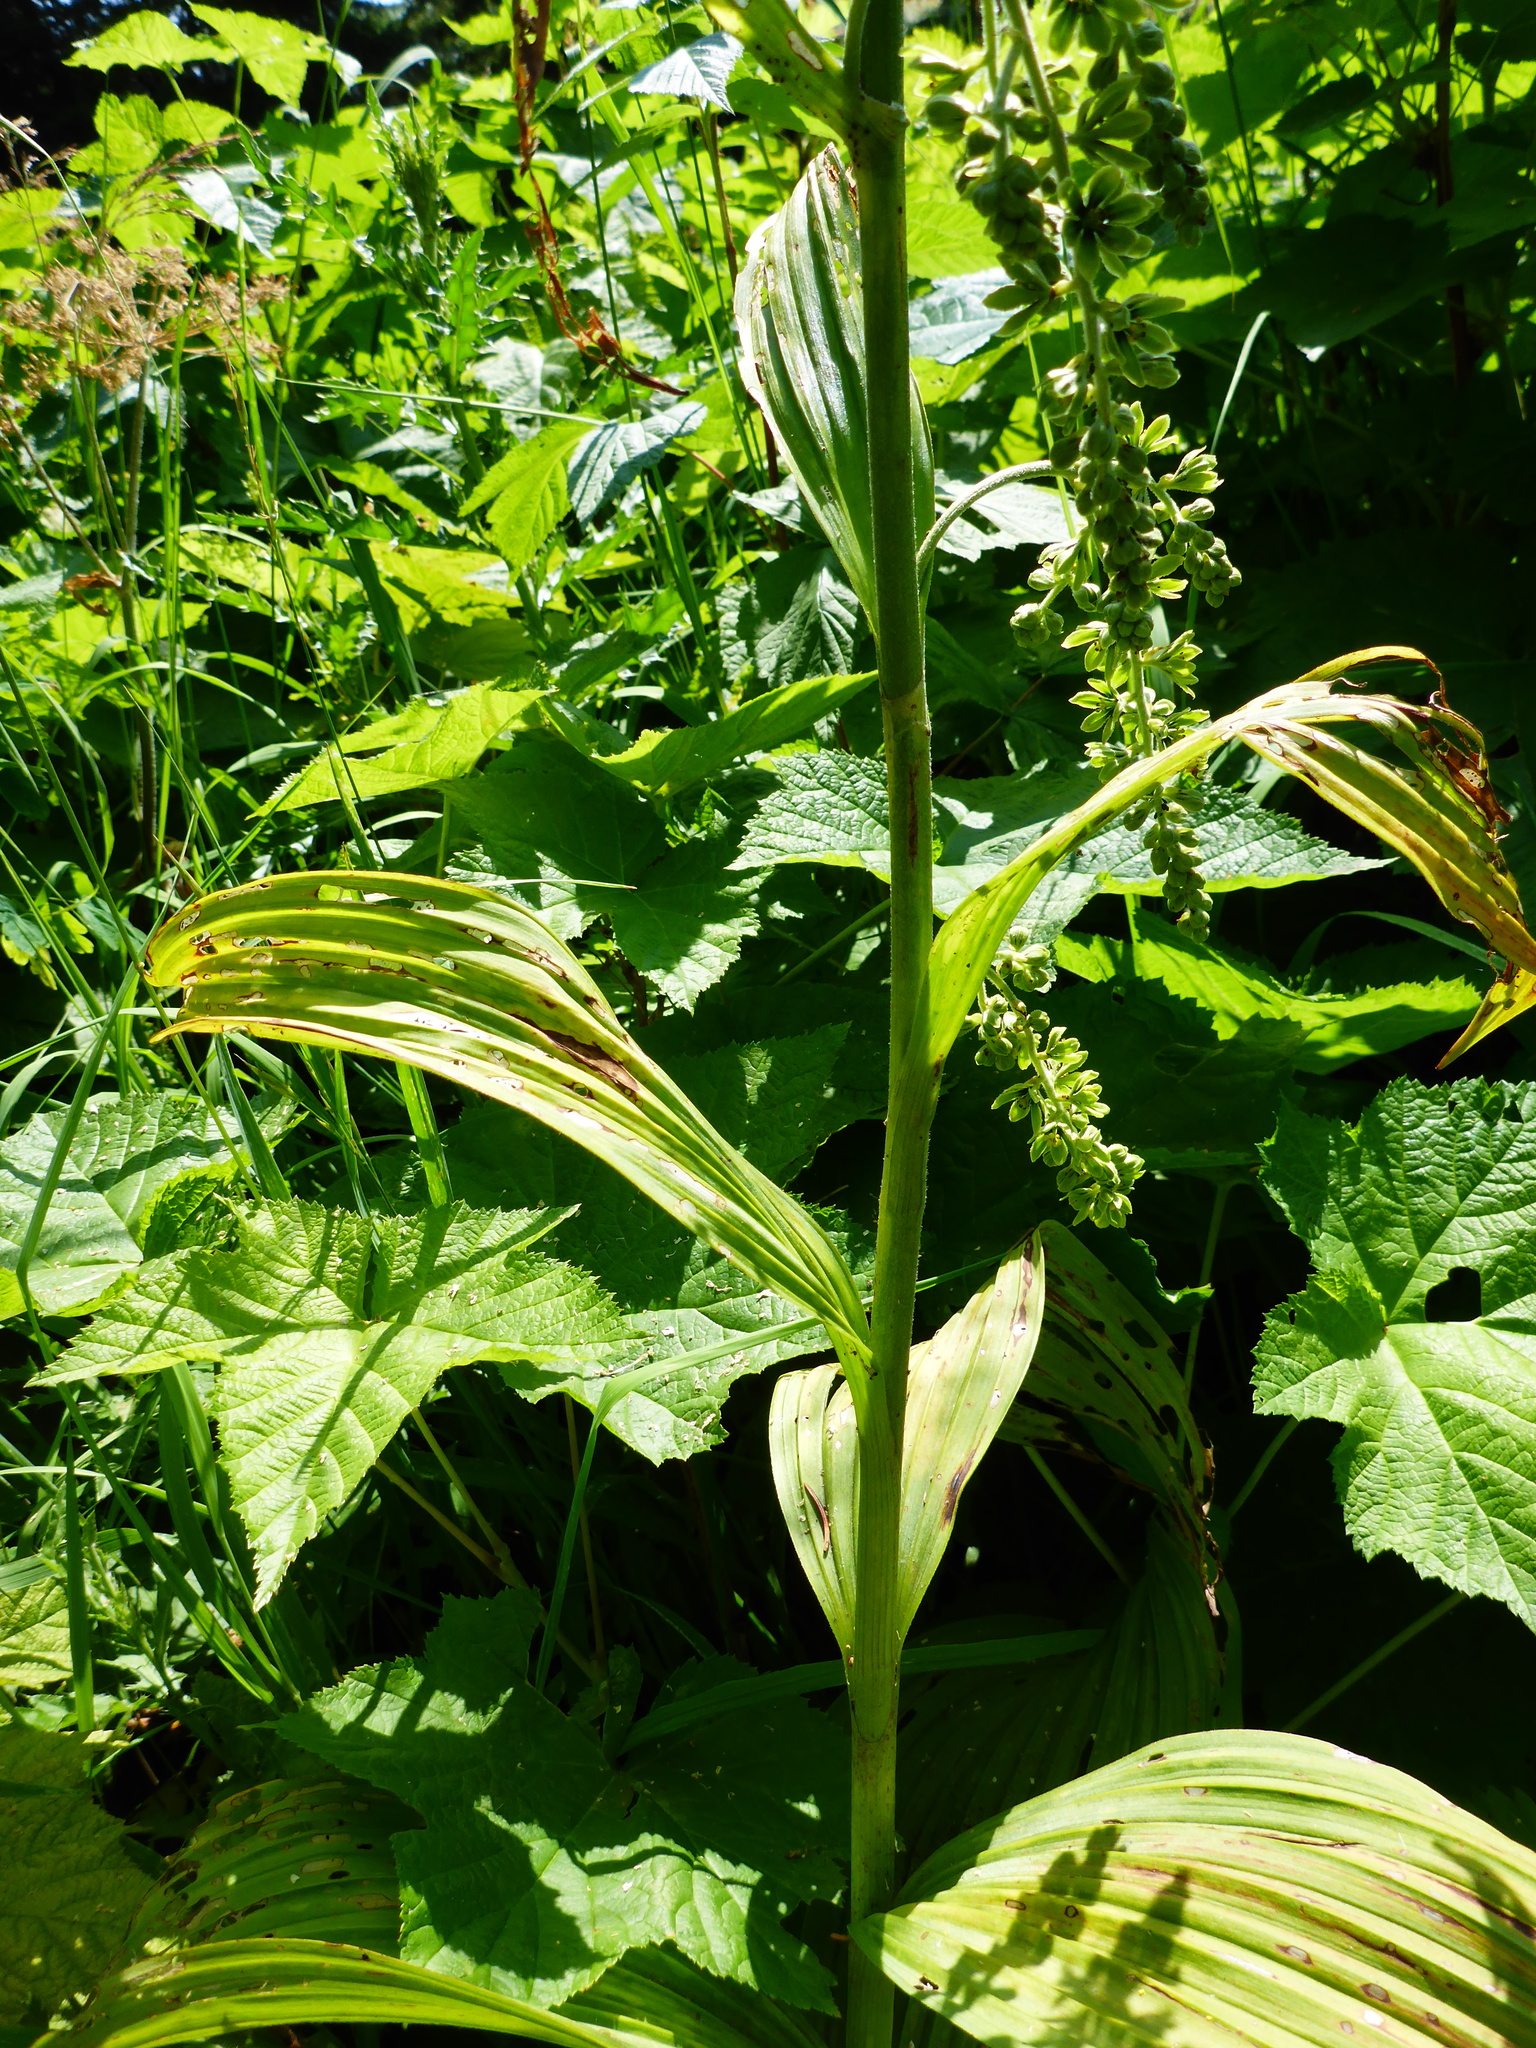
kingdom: Plantae
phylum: Tracheophyta
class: Liliopsida
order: Liliales
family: Melanthiaceae
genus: Veratrum
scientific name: Veratrum viride
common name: American false hellebore
